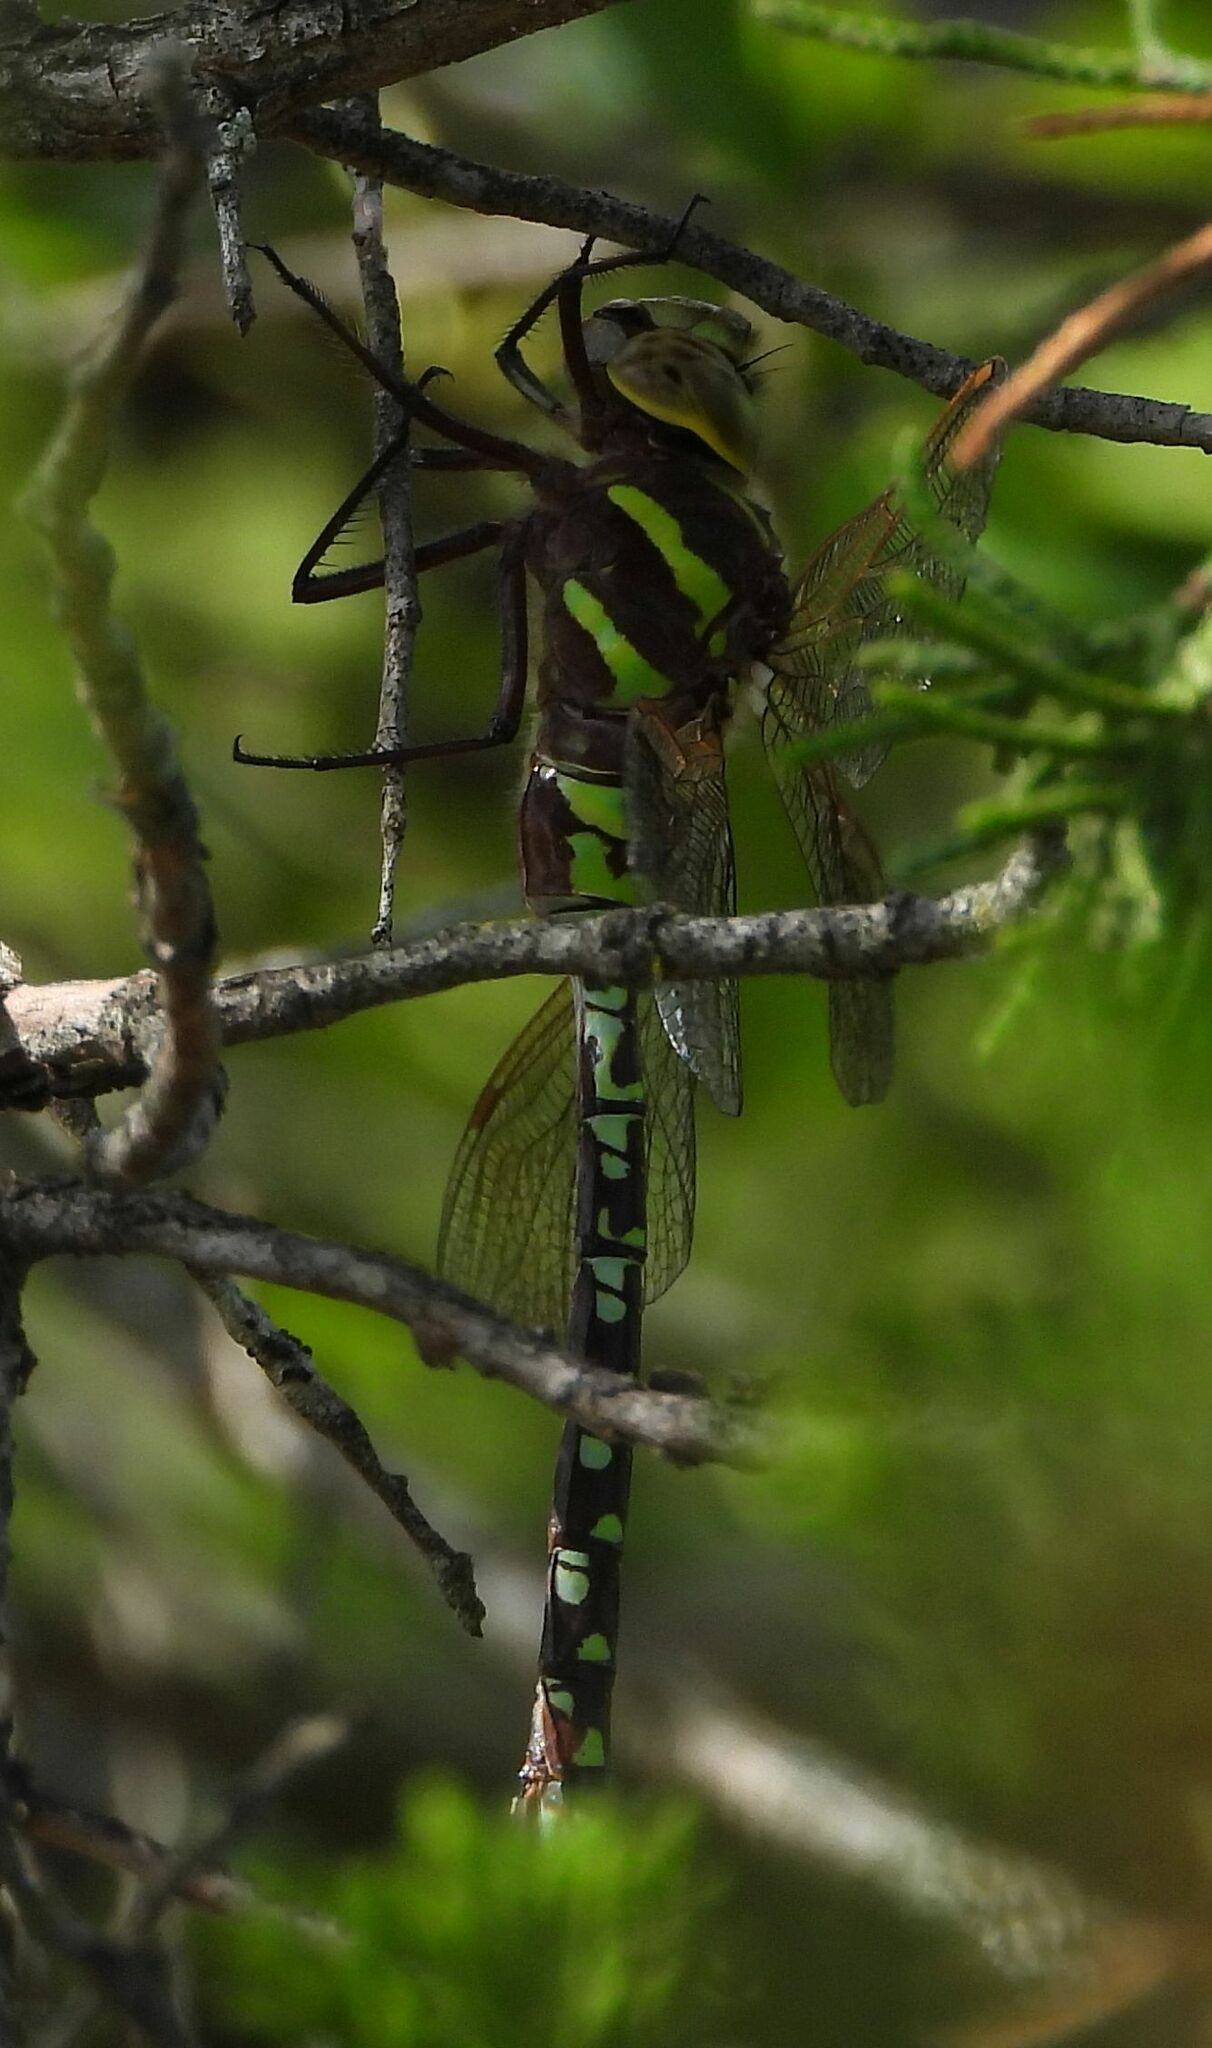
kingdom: Animalia
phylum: Arthropoda
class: Insecta
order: Odonata
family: Aeshnidae
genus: Aeshna
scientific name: Aeshna constricta
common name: Lance-tipped darner
